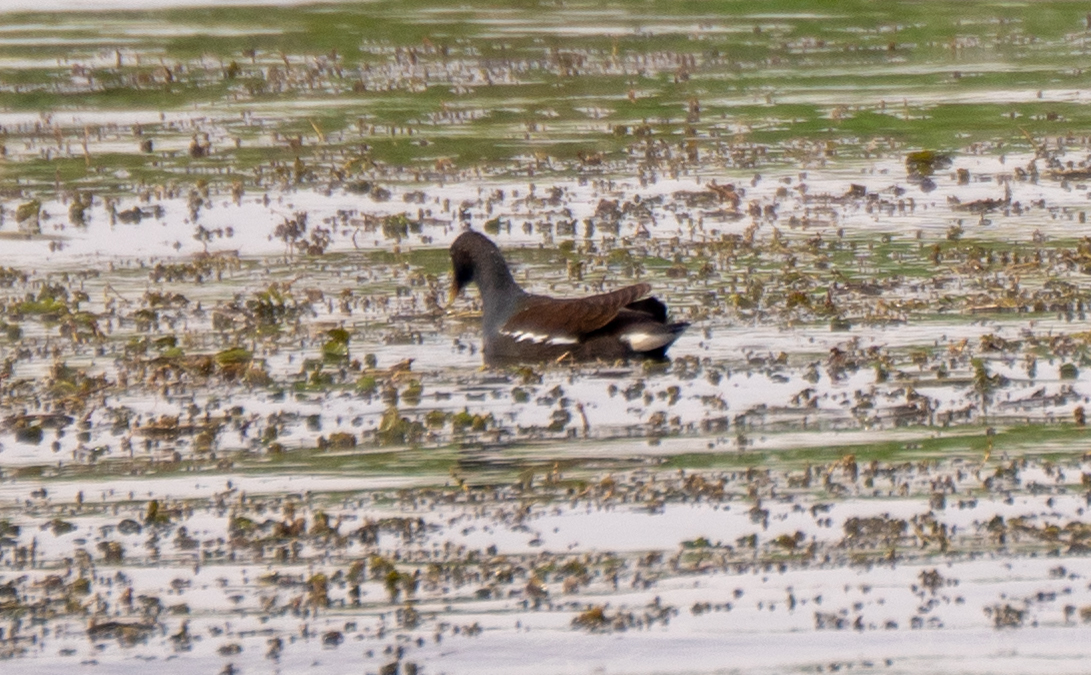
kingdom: Animalia
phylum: Chordata
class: Aves
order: Gruiformes
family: Rallidae
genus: Gallinula
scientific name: Gallinula chloropus
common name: Common moorhen
